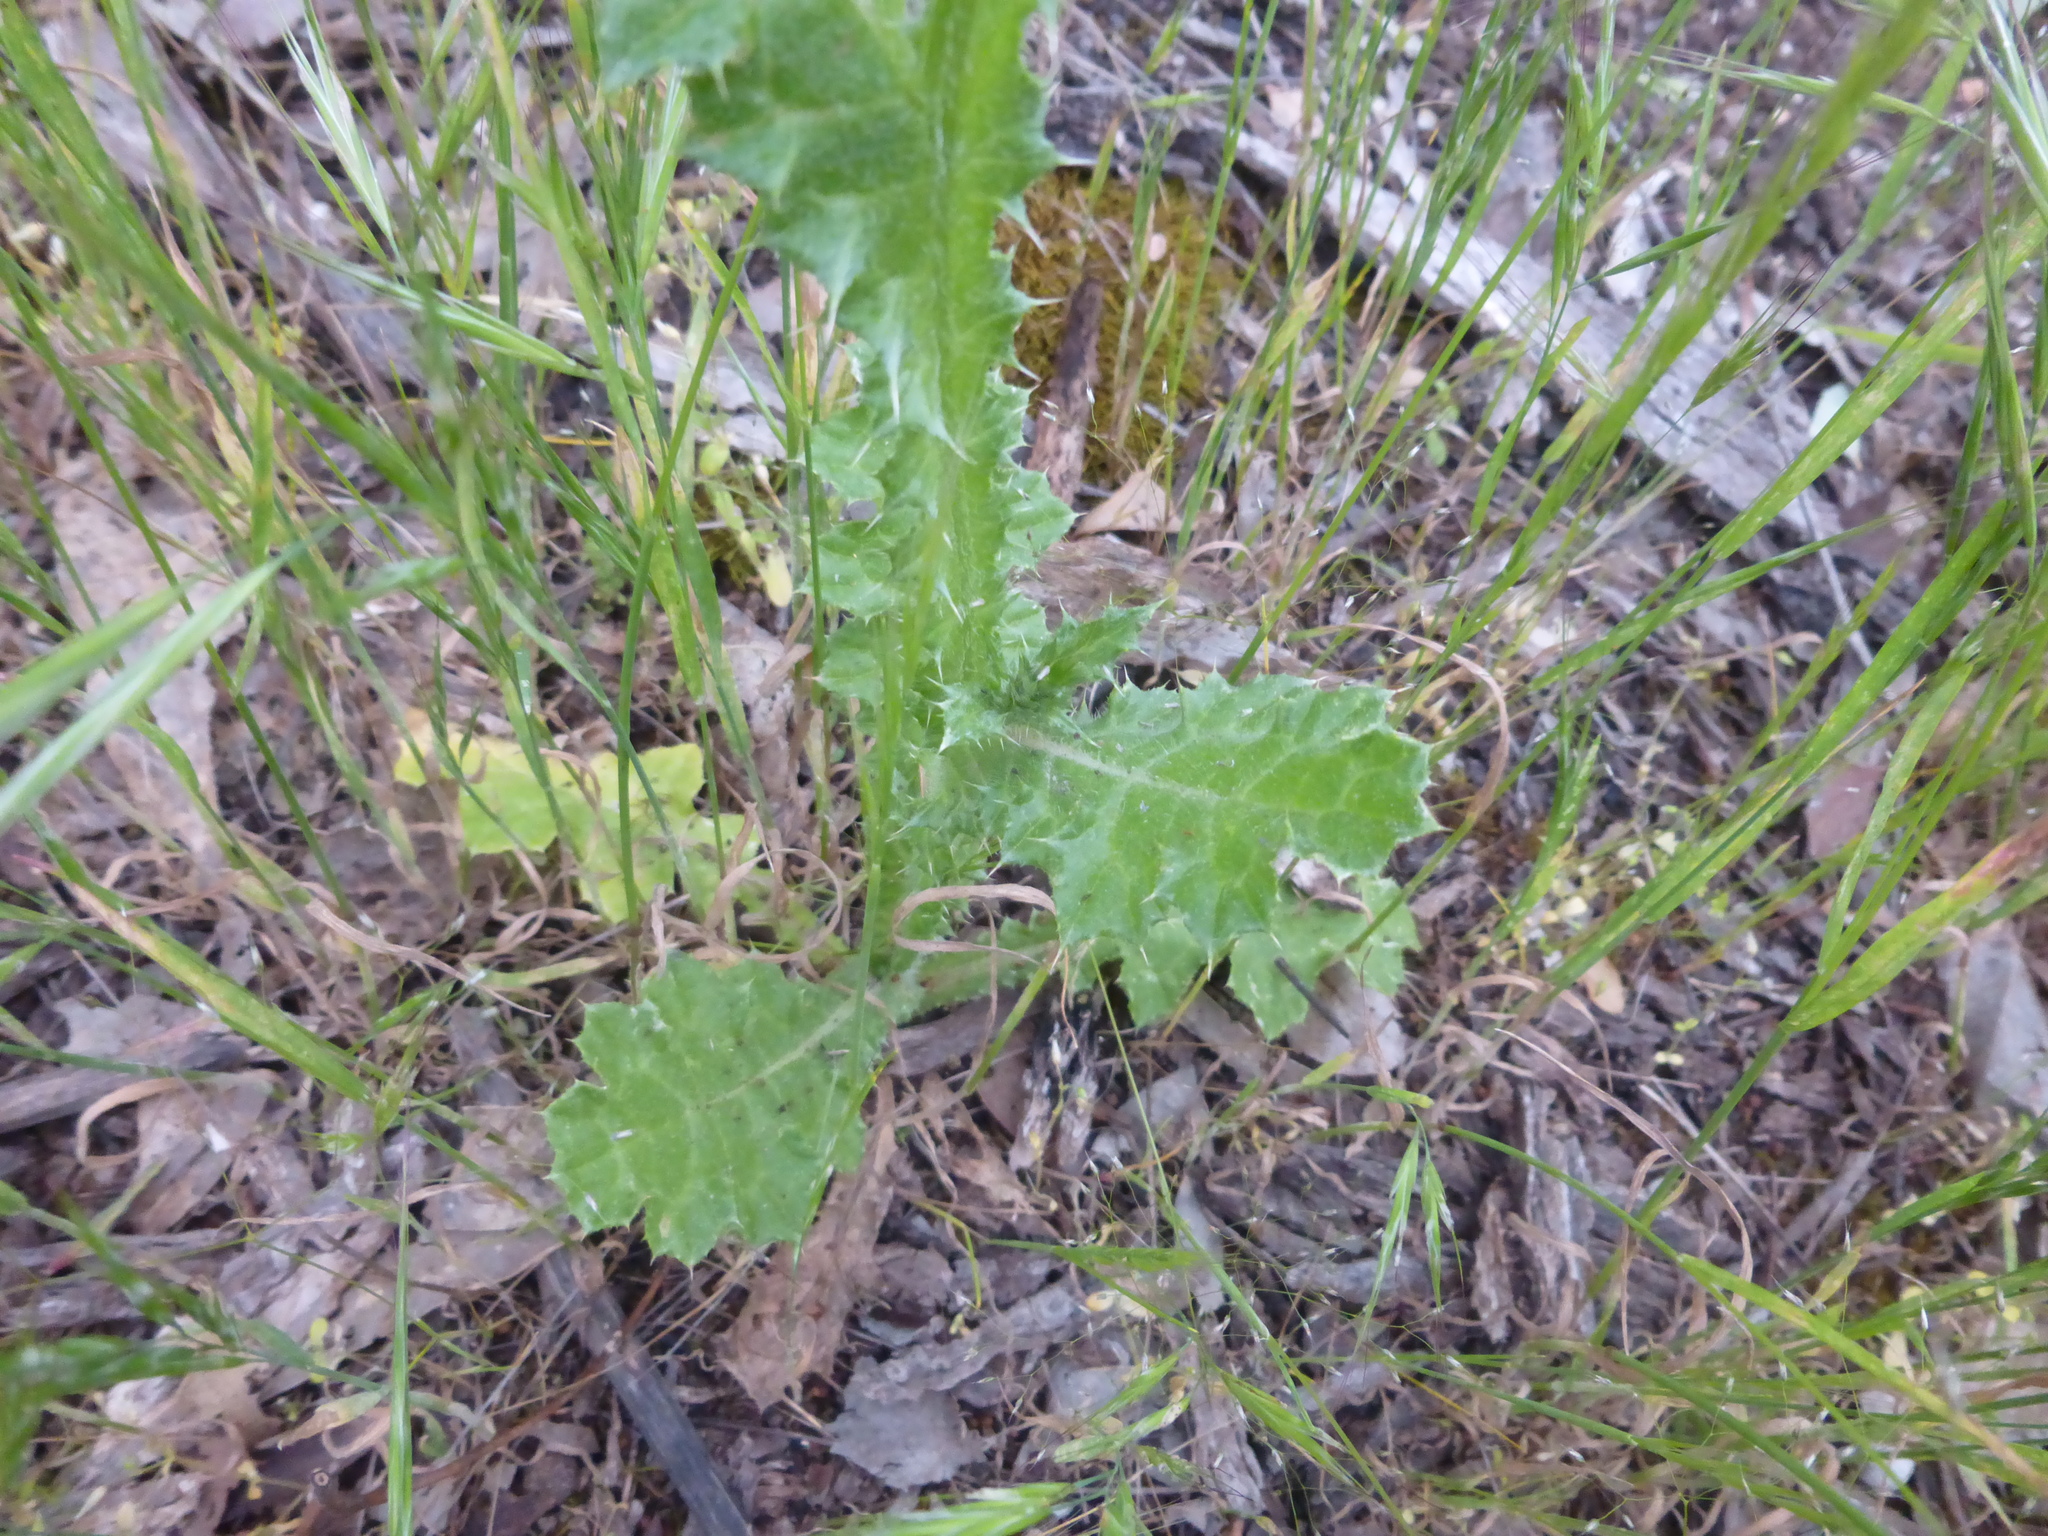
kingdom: Plantae
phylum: Tracheophyta
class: Magnoliopsida
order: Asterales
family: Asteraceae
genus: Carduus
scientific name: Carduus pycnocephalus
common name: Plymouth thistle
